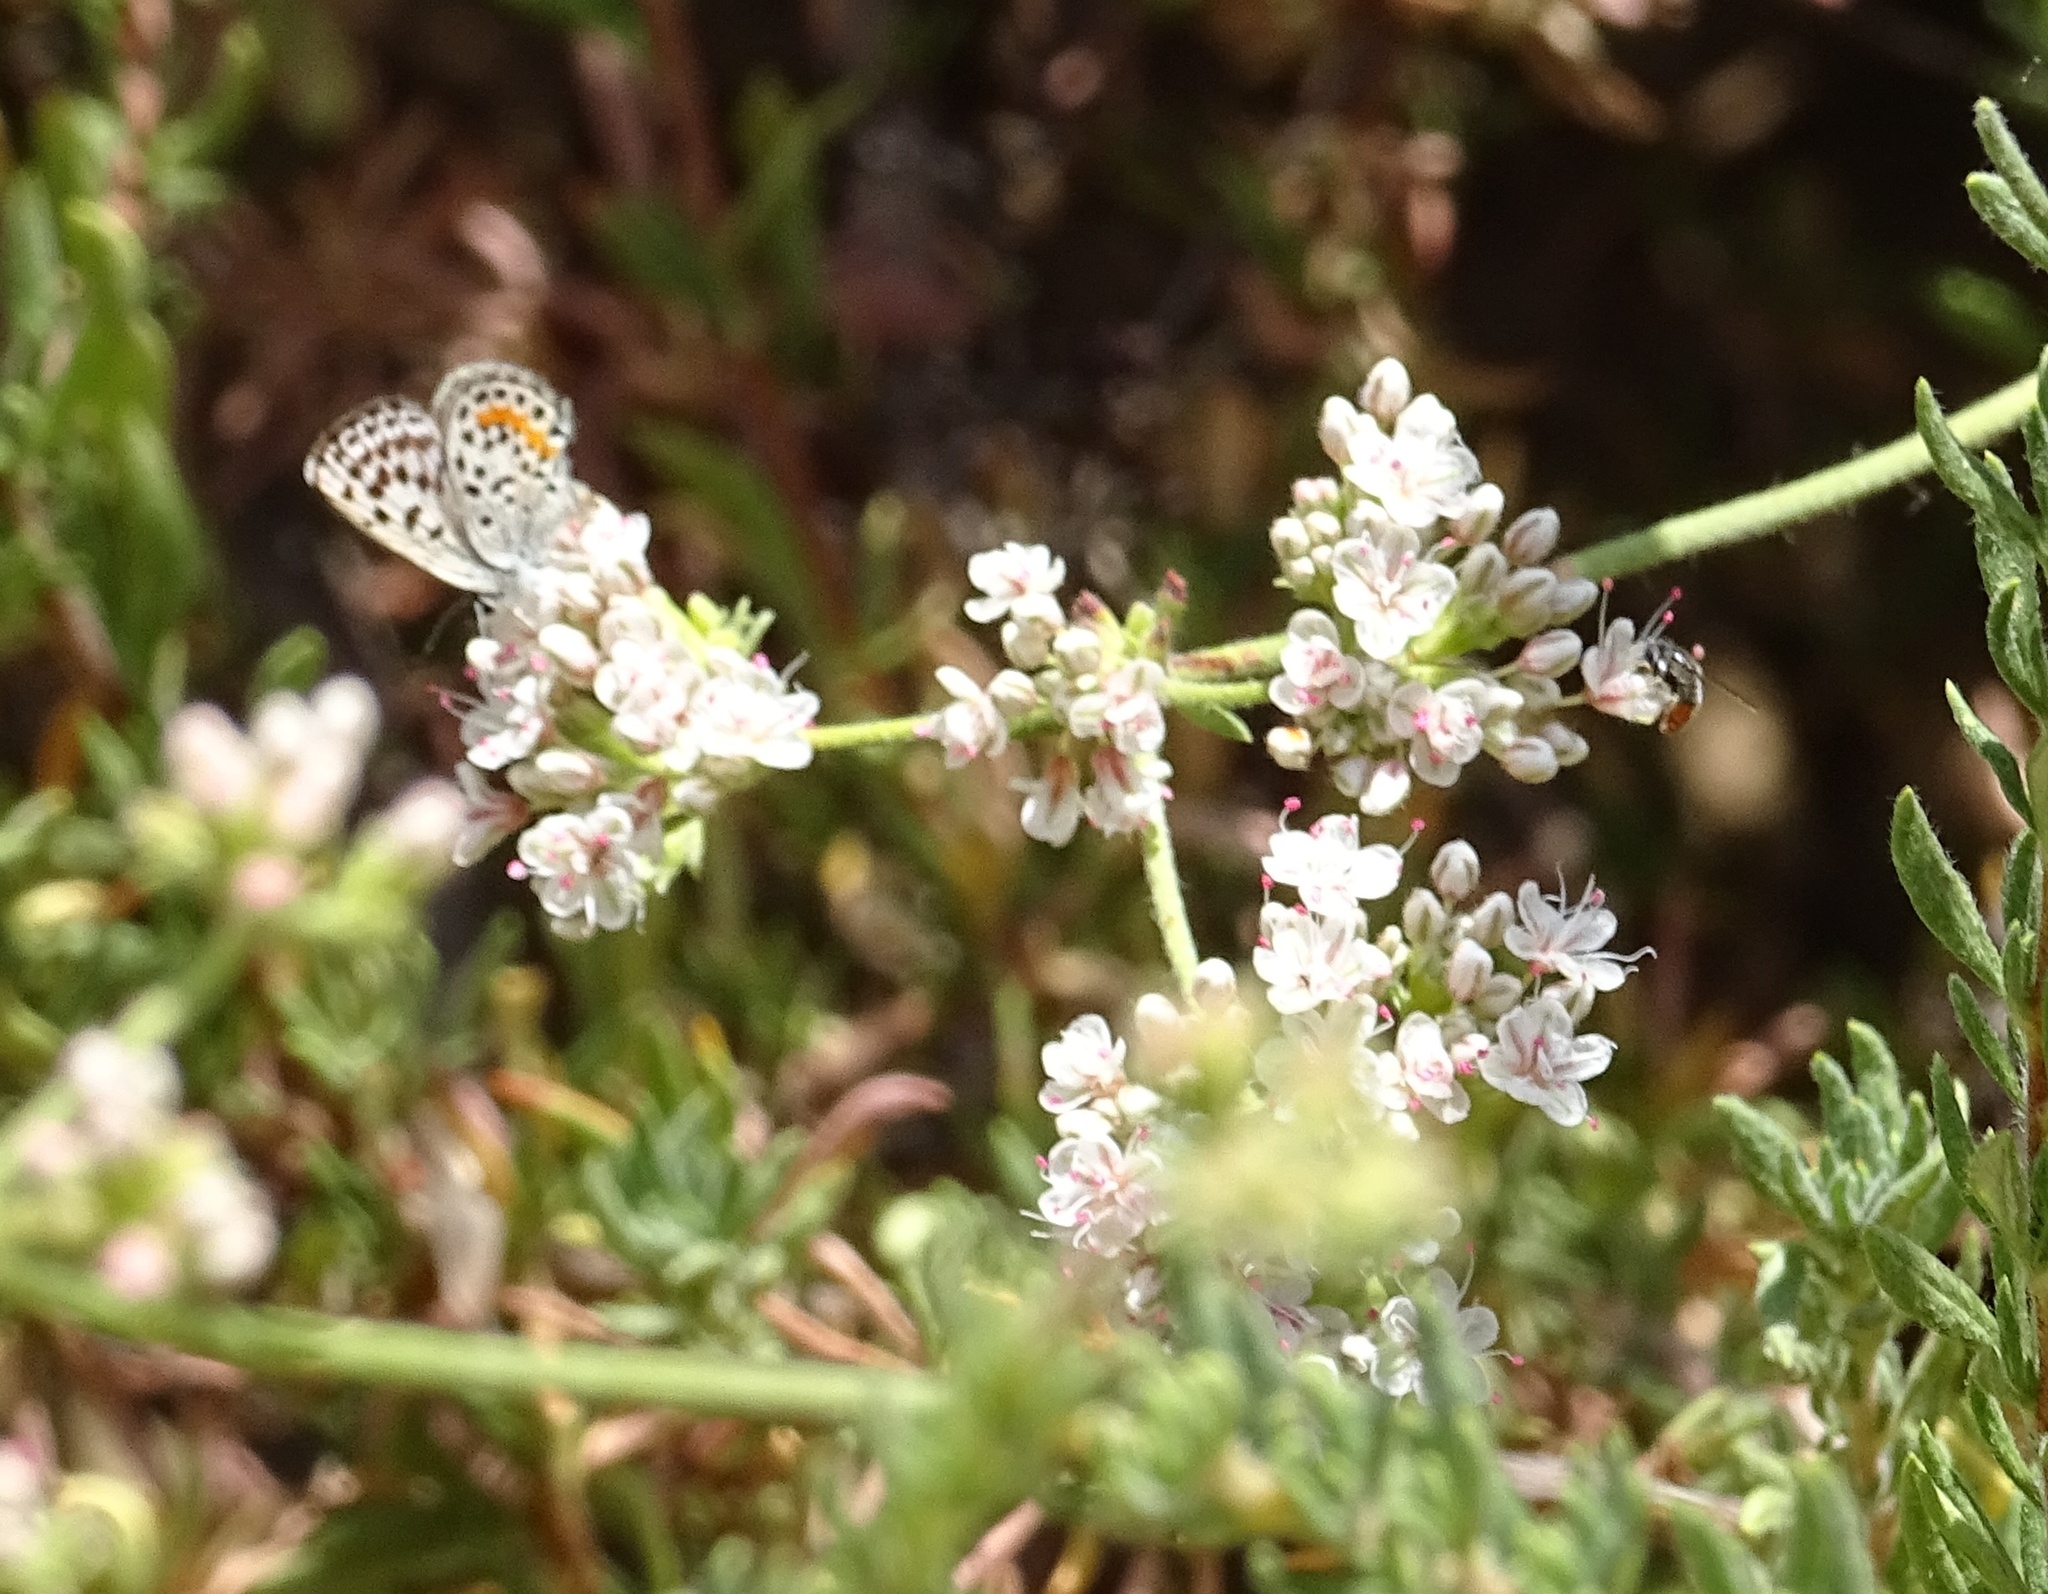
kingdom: Animalia
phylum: Arthropoda
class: Insecta
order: Lepidoptera
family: Lycaenidae
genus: Philotes
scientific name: Philotes bernardino
